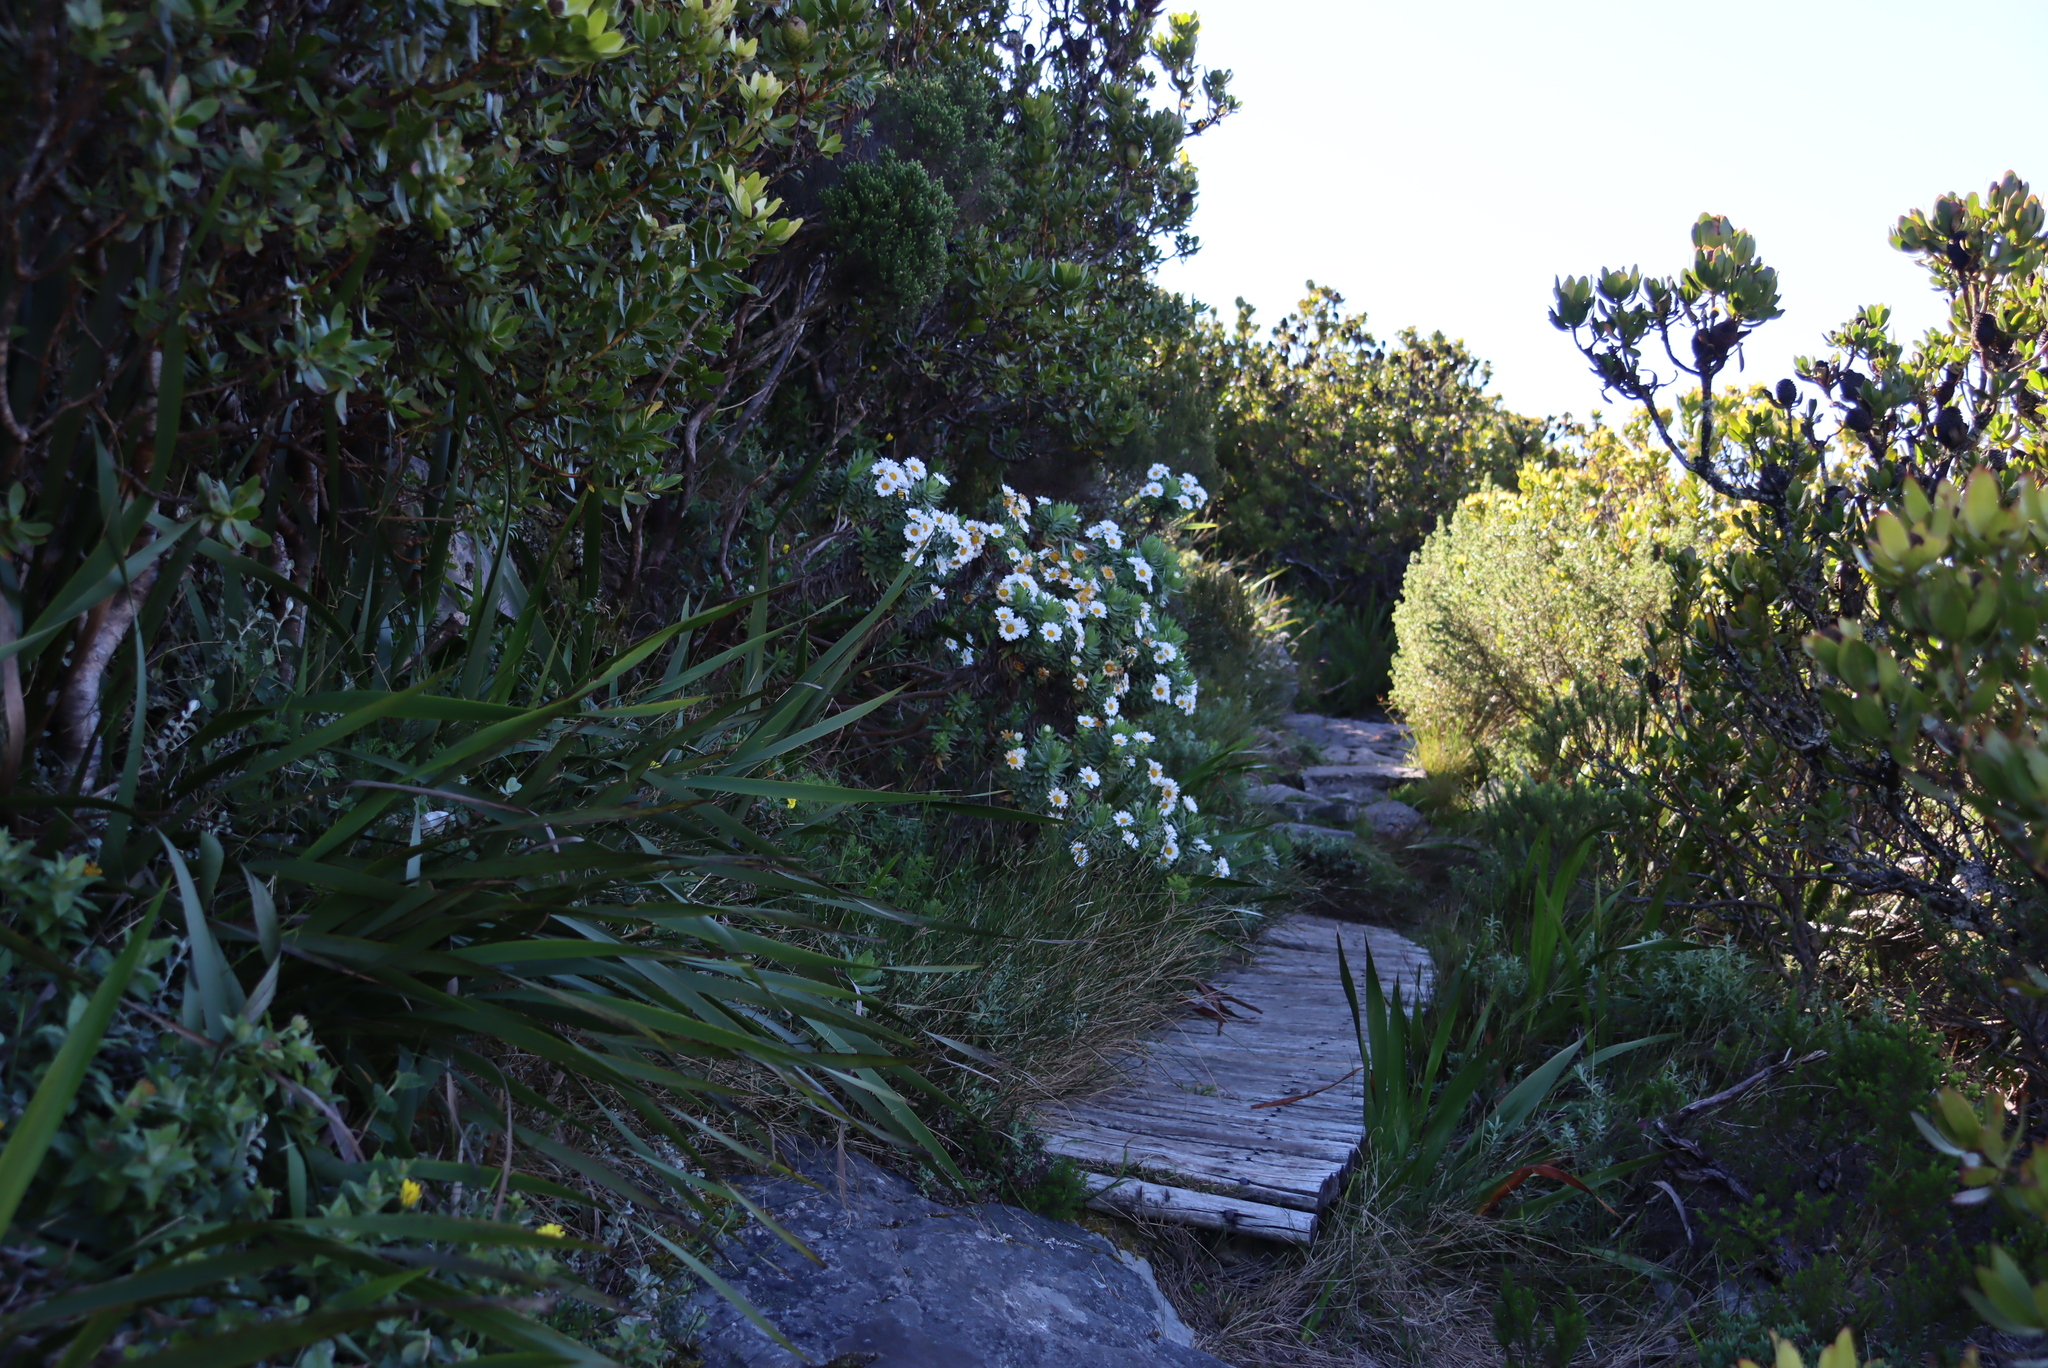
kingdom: Plantae
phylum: Tracheophyta
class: Magnoliopsida
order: Asterales
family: Asteraceae
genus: Osmitopsis
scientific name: Osmitopsis asteriscoides
